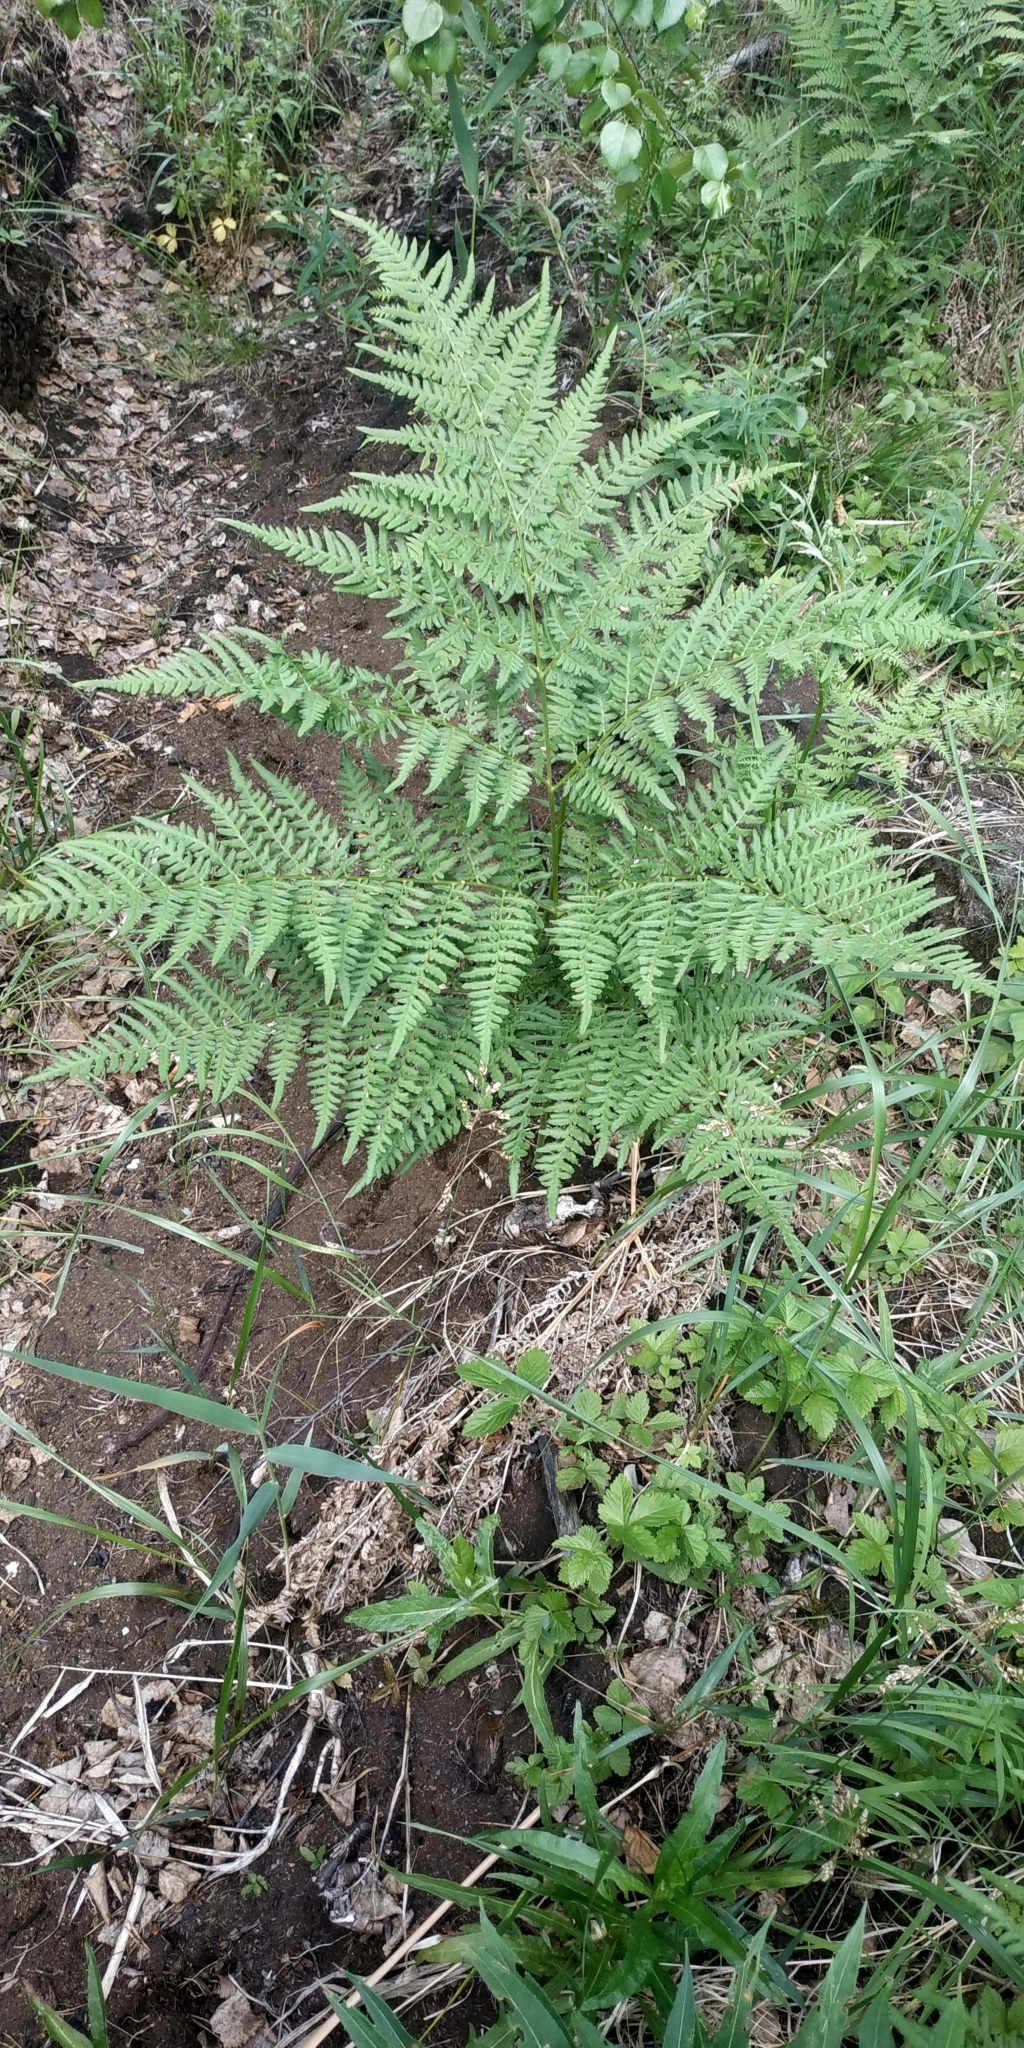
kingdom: Plantae
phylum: Tracheophyta
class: Polypodiopsida
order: Polypodiales
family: Dennstaedtiaceae
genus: Pteridium
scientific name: Pteridium aquilinum
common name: Bracken
